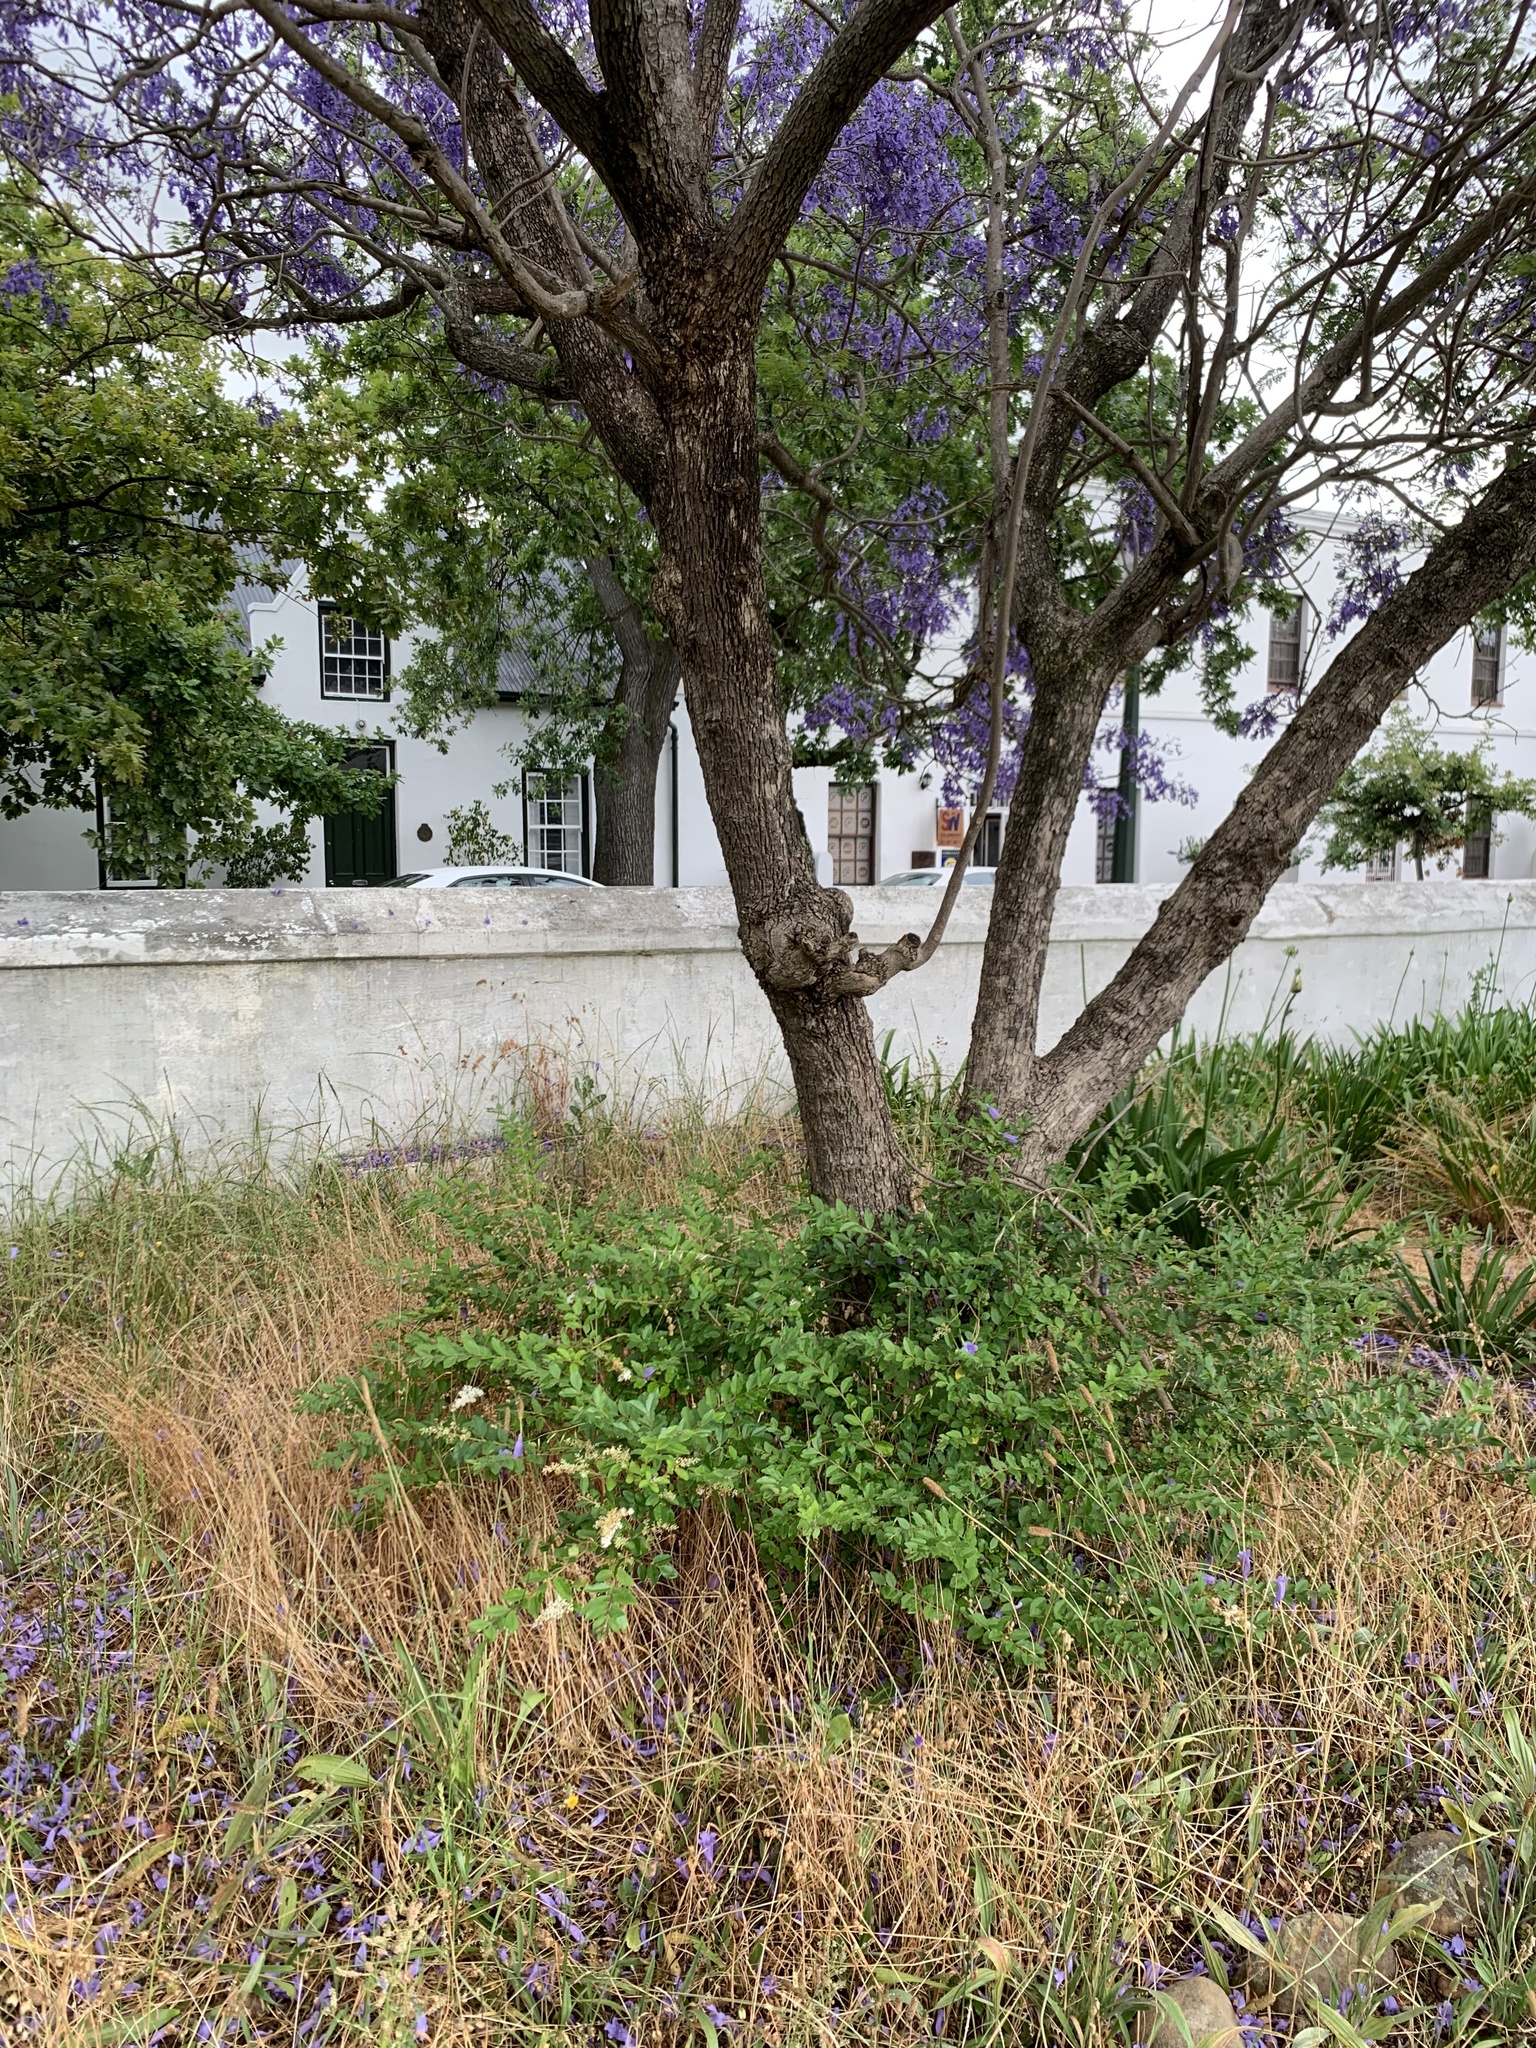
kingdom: Plantae
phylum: Tracheophyta
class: Magnoliopsida
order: Lamiales
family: Oleaceae
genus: Ligustrum
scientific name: Ligustrum sinense
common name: Chinese privet
